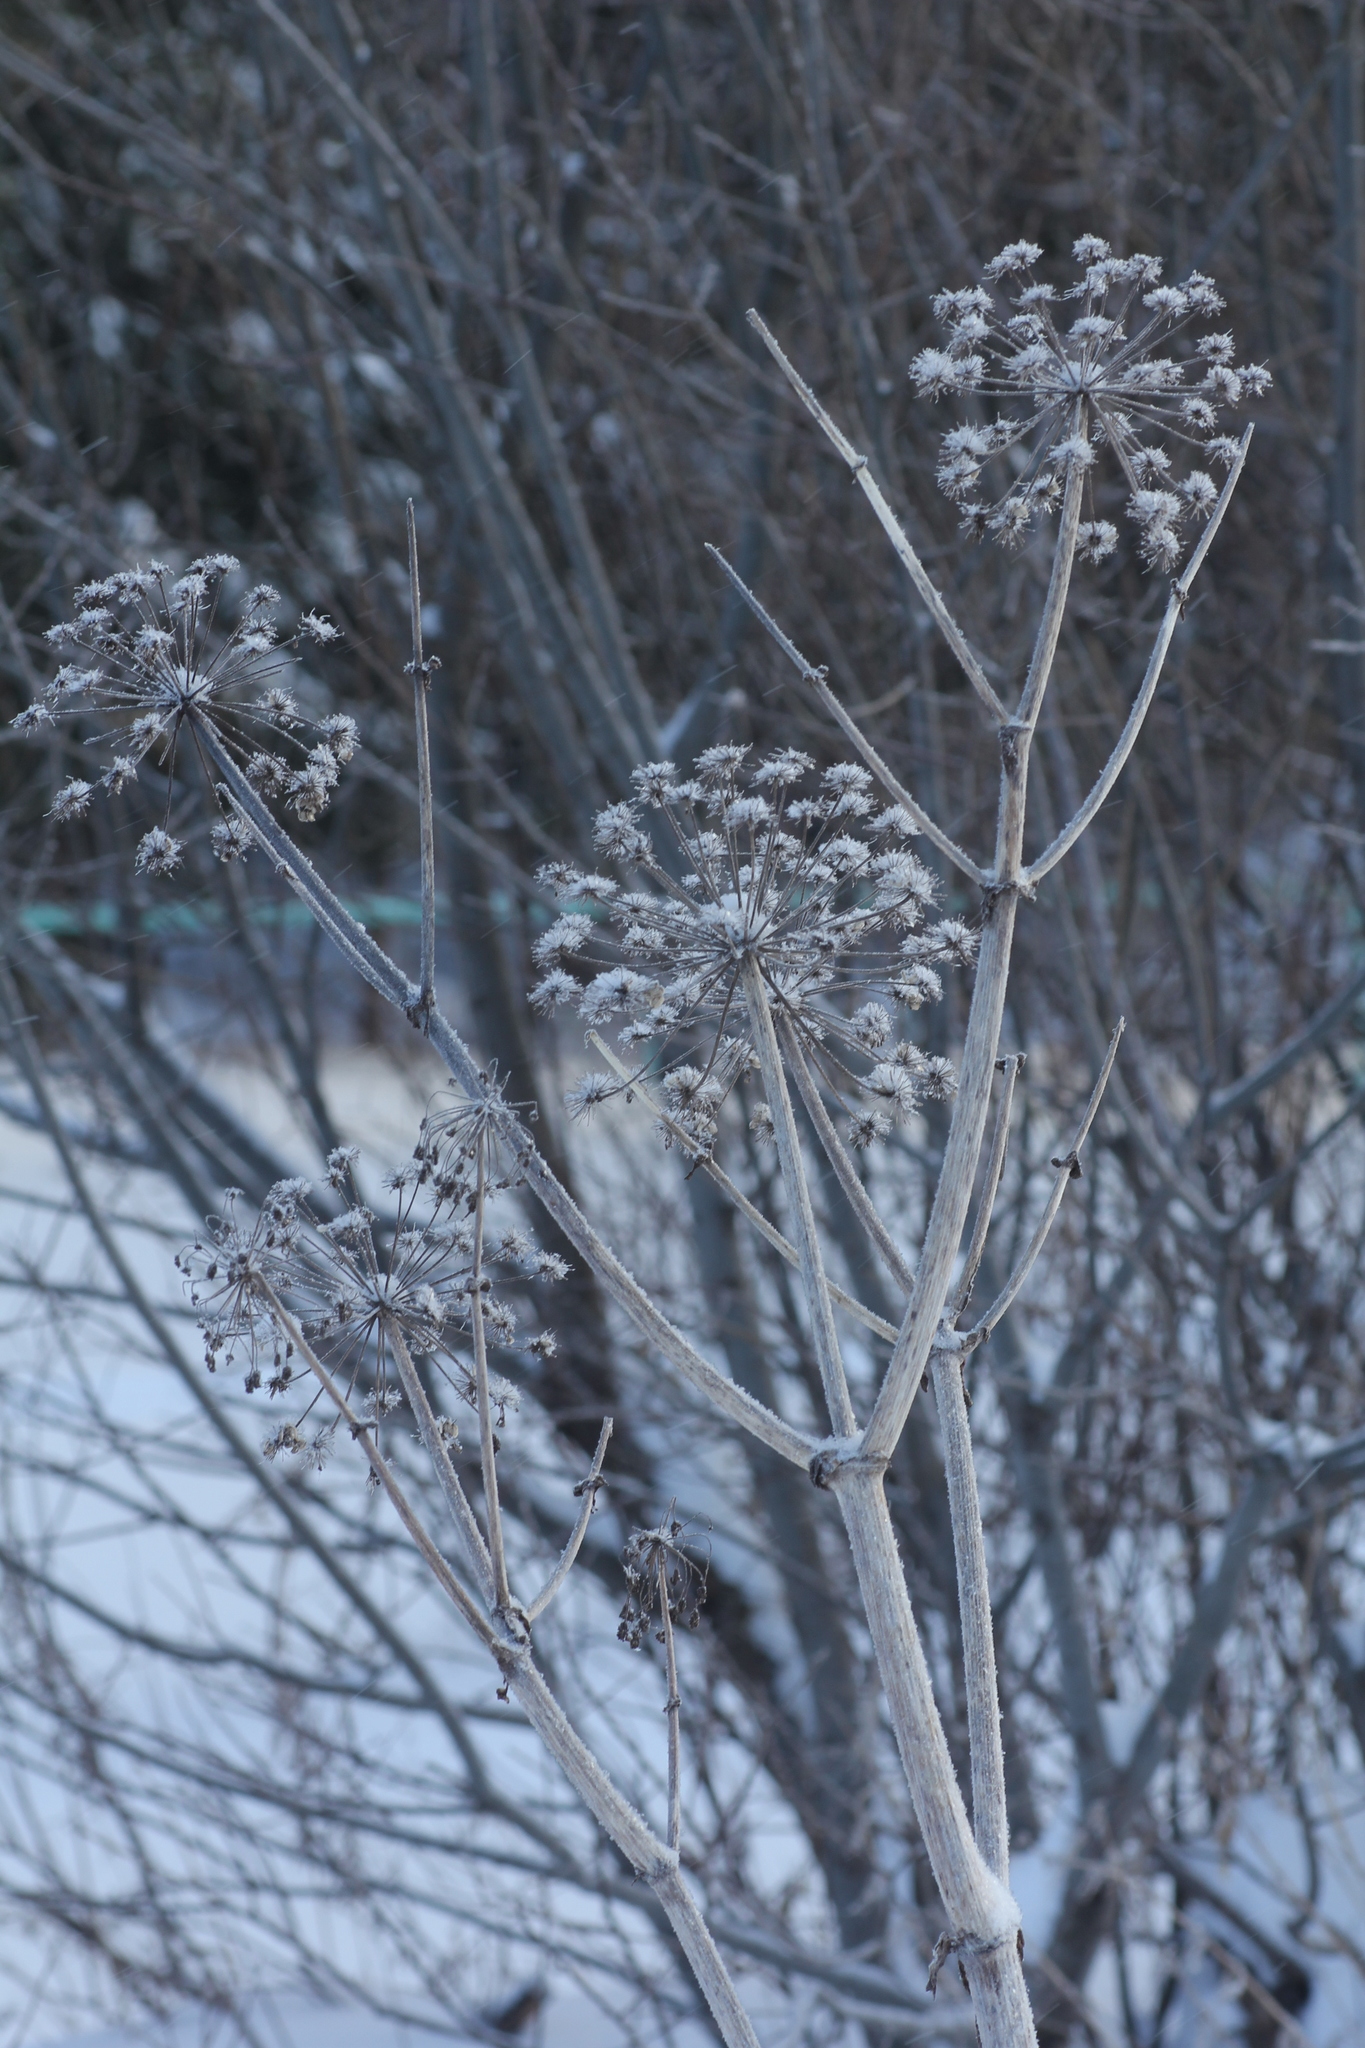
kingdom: Plantae
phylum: Tracheophyta
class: Magnoliopsida
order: Apiales
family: Apiaceae
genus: Angelica
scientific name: Angelica decurrens
